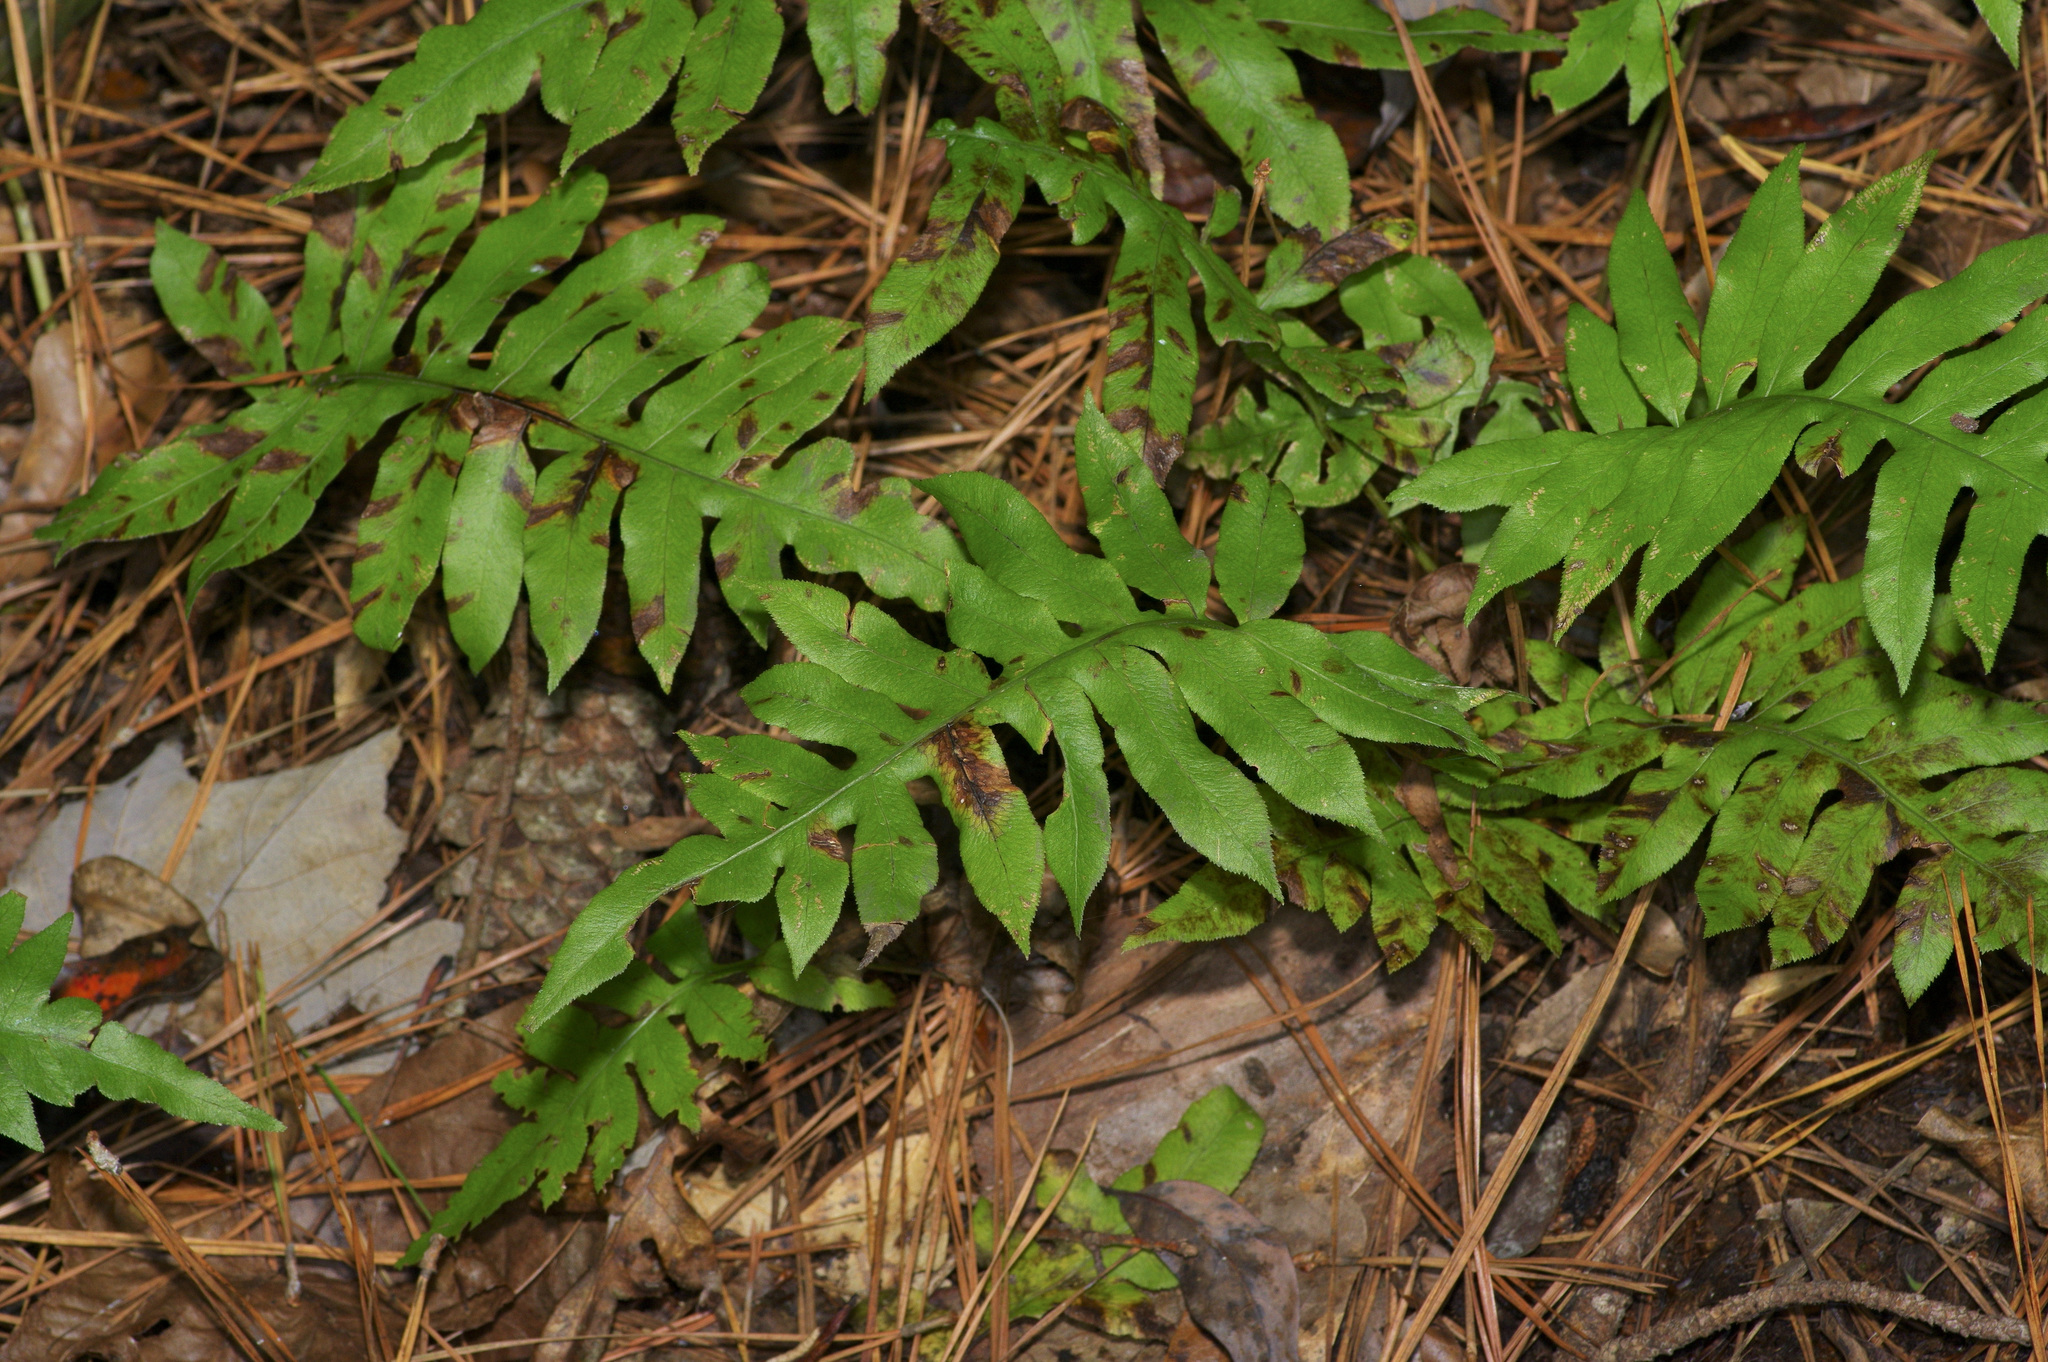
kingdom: Plantae
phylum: Tracheophyta
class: Polypodiopsida
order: Polypodiales
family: Blechnaceae
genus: Lorinseria
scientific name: Lorinseria areolata
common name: Dwarf chain fern
